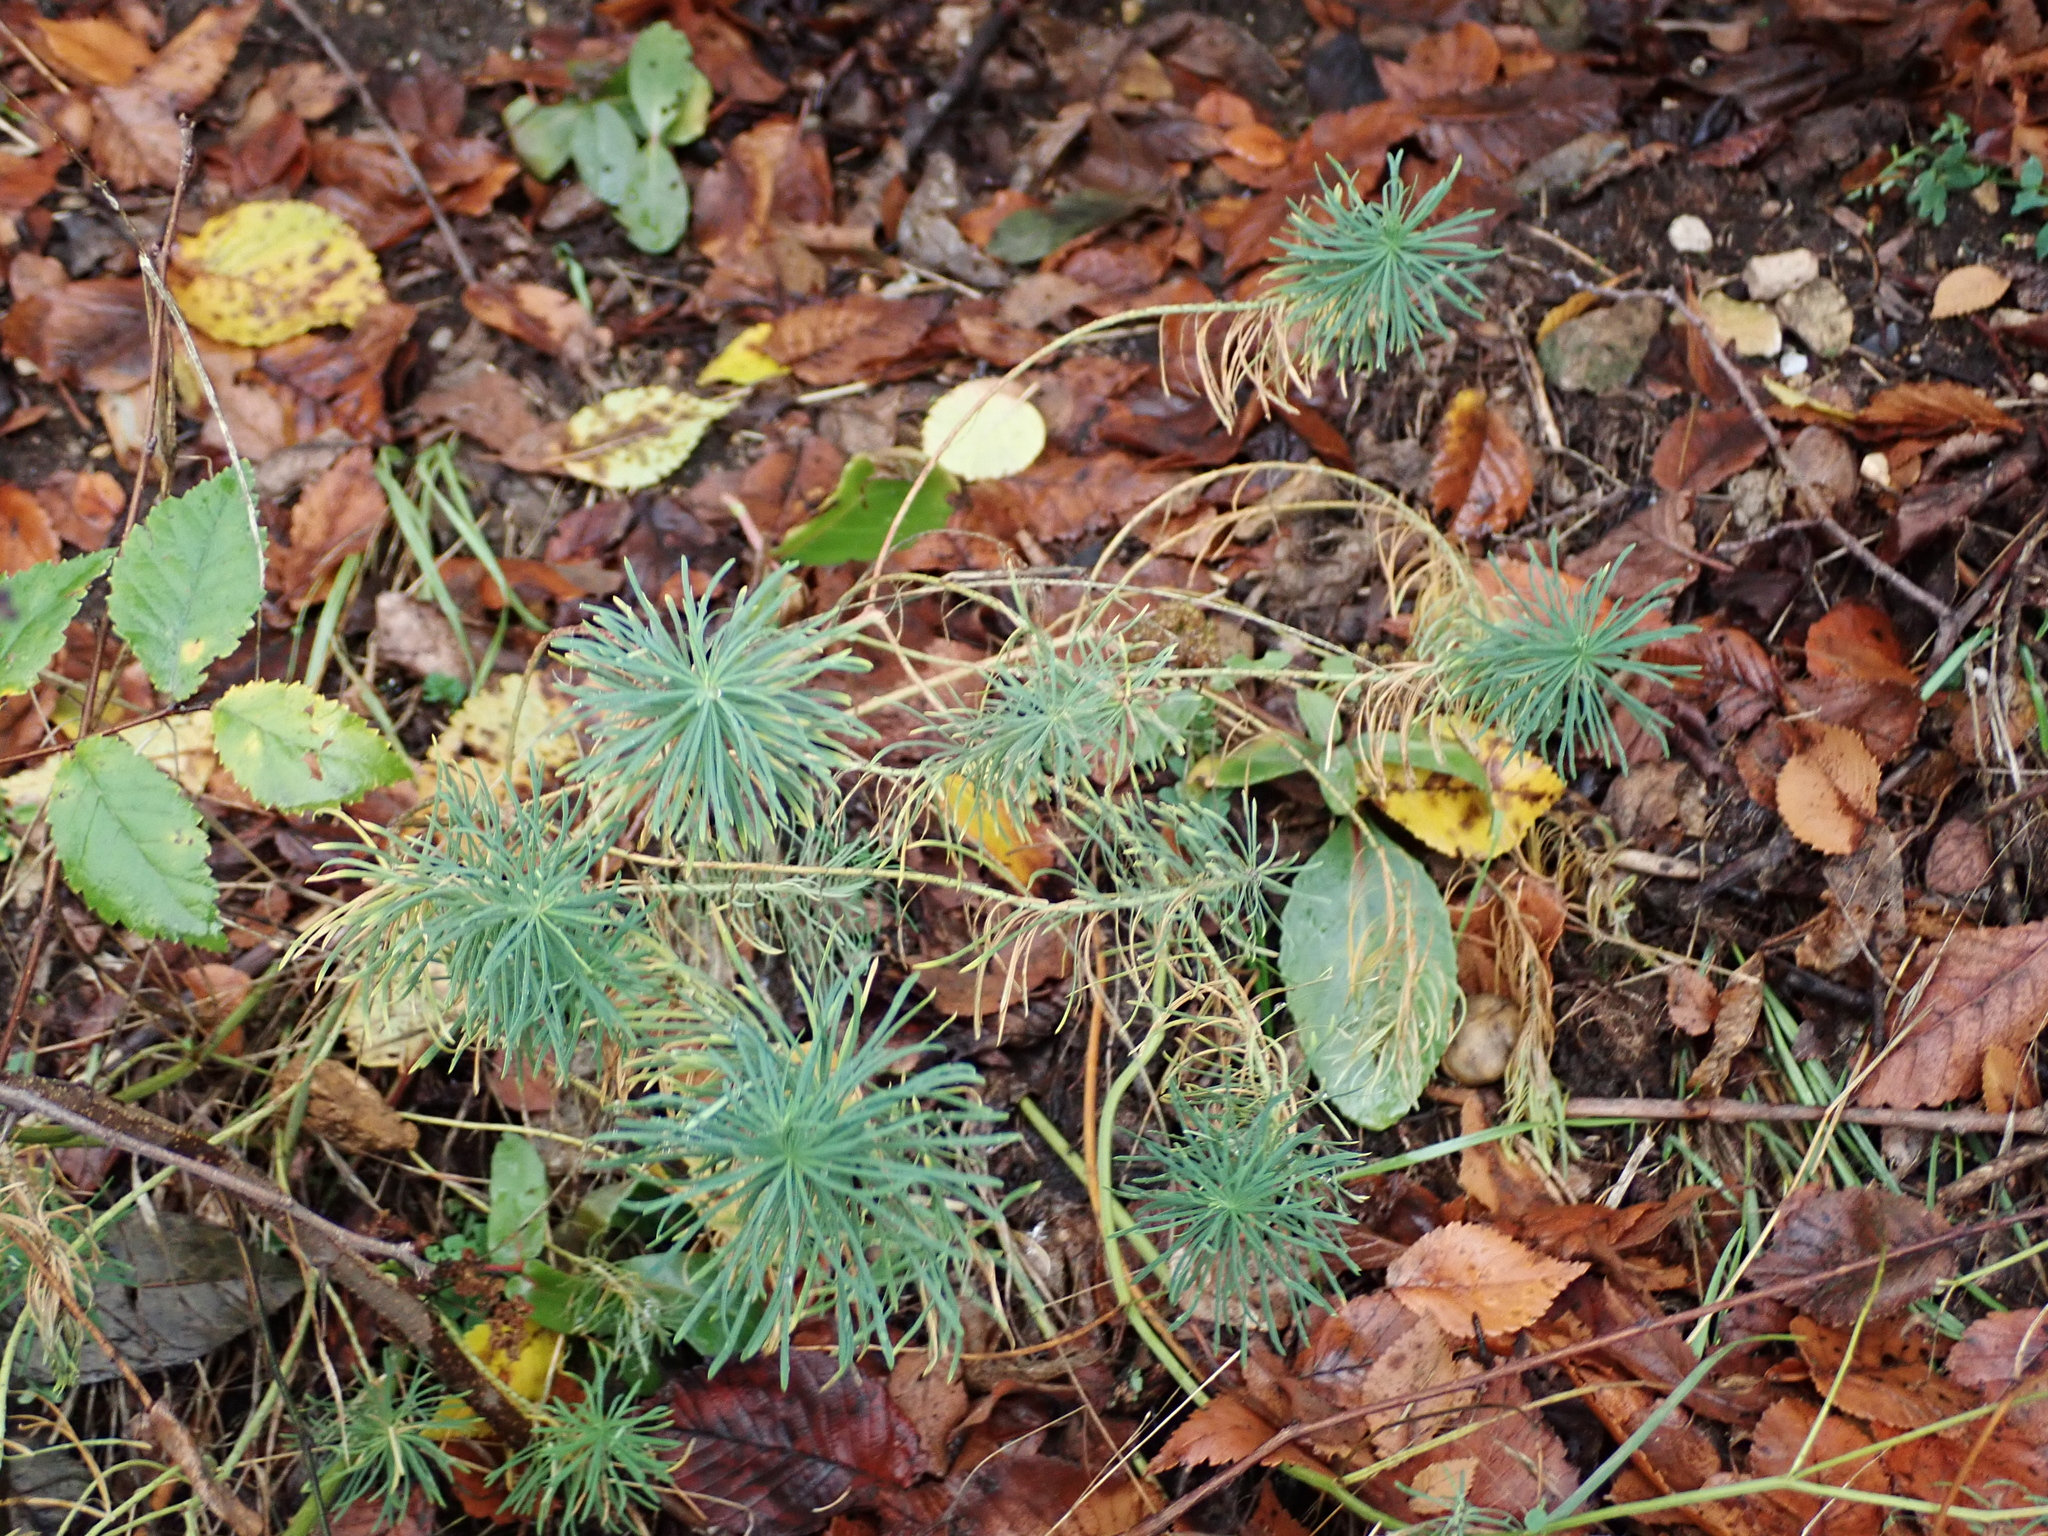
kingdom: Plantae
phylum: Tracheophyta
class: Magnoliopsida
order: Malpighiales
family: Euphorbiaceae
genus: Euphorbia
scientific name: Euphorbia cyparissias
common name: Cypress spurge
